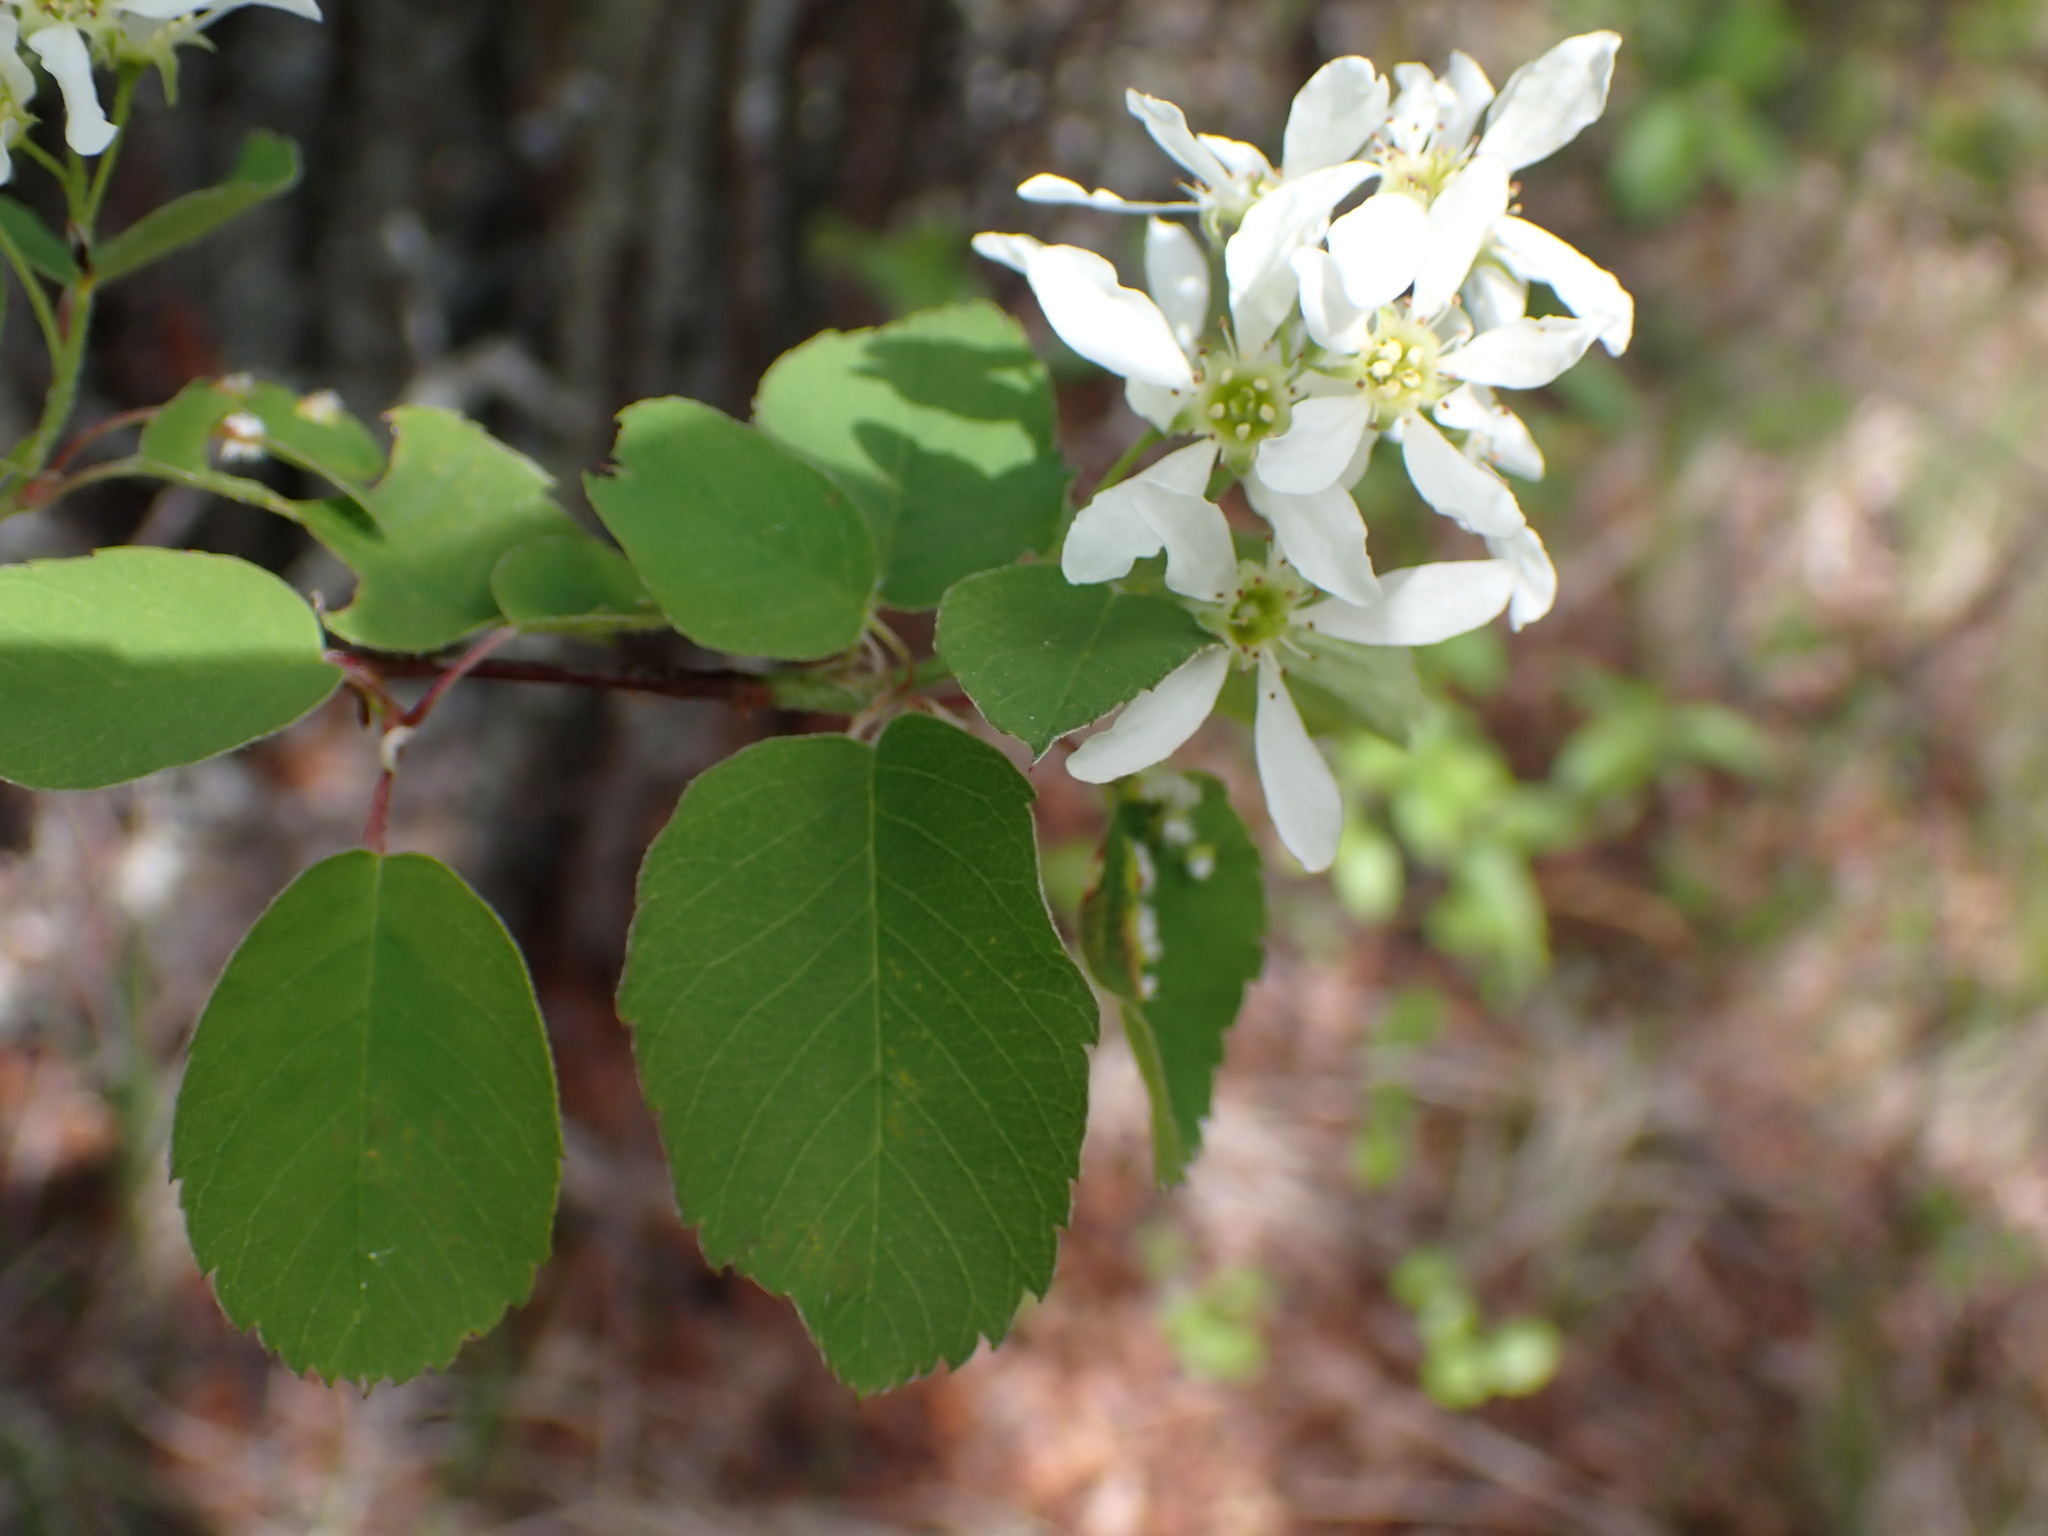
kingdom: Plantae
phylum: Tracheophyta
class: Magnoliopsida
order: Rosales
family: Rosaceae
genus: Amelanchier
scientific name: Amelanchier alnifolia
